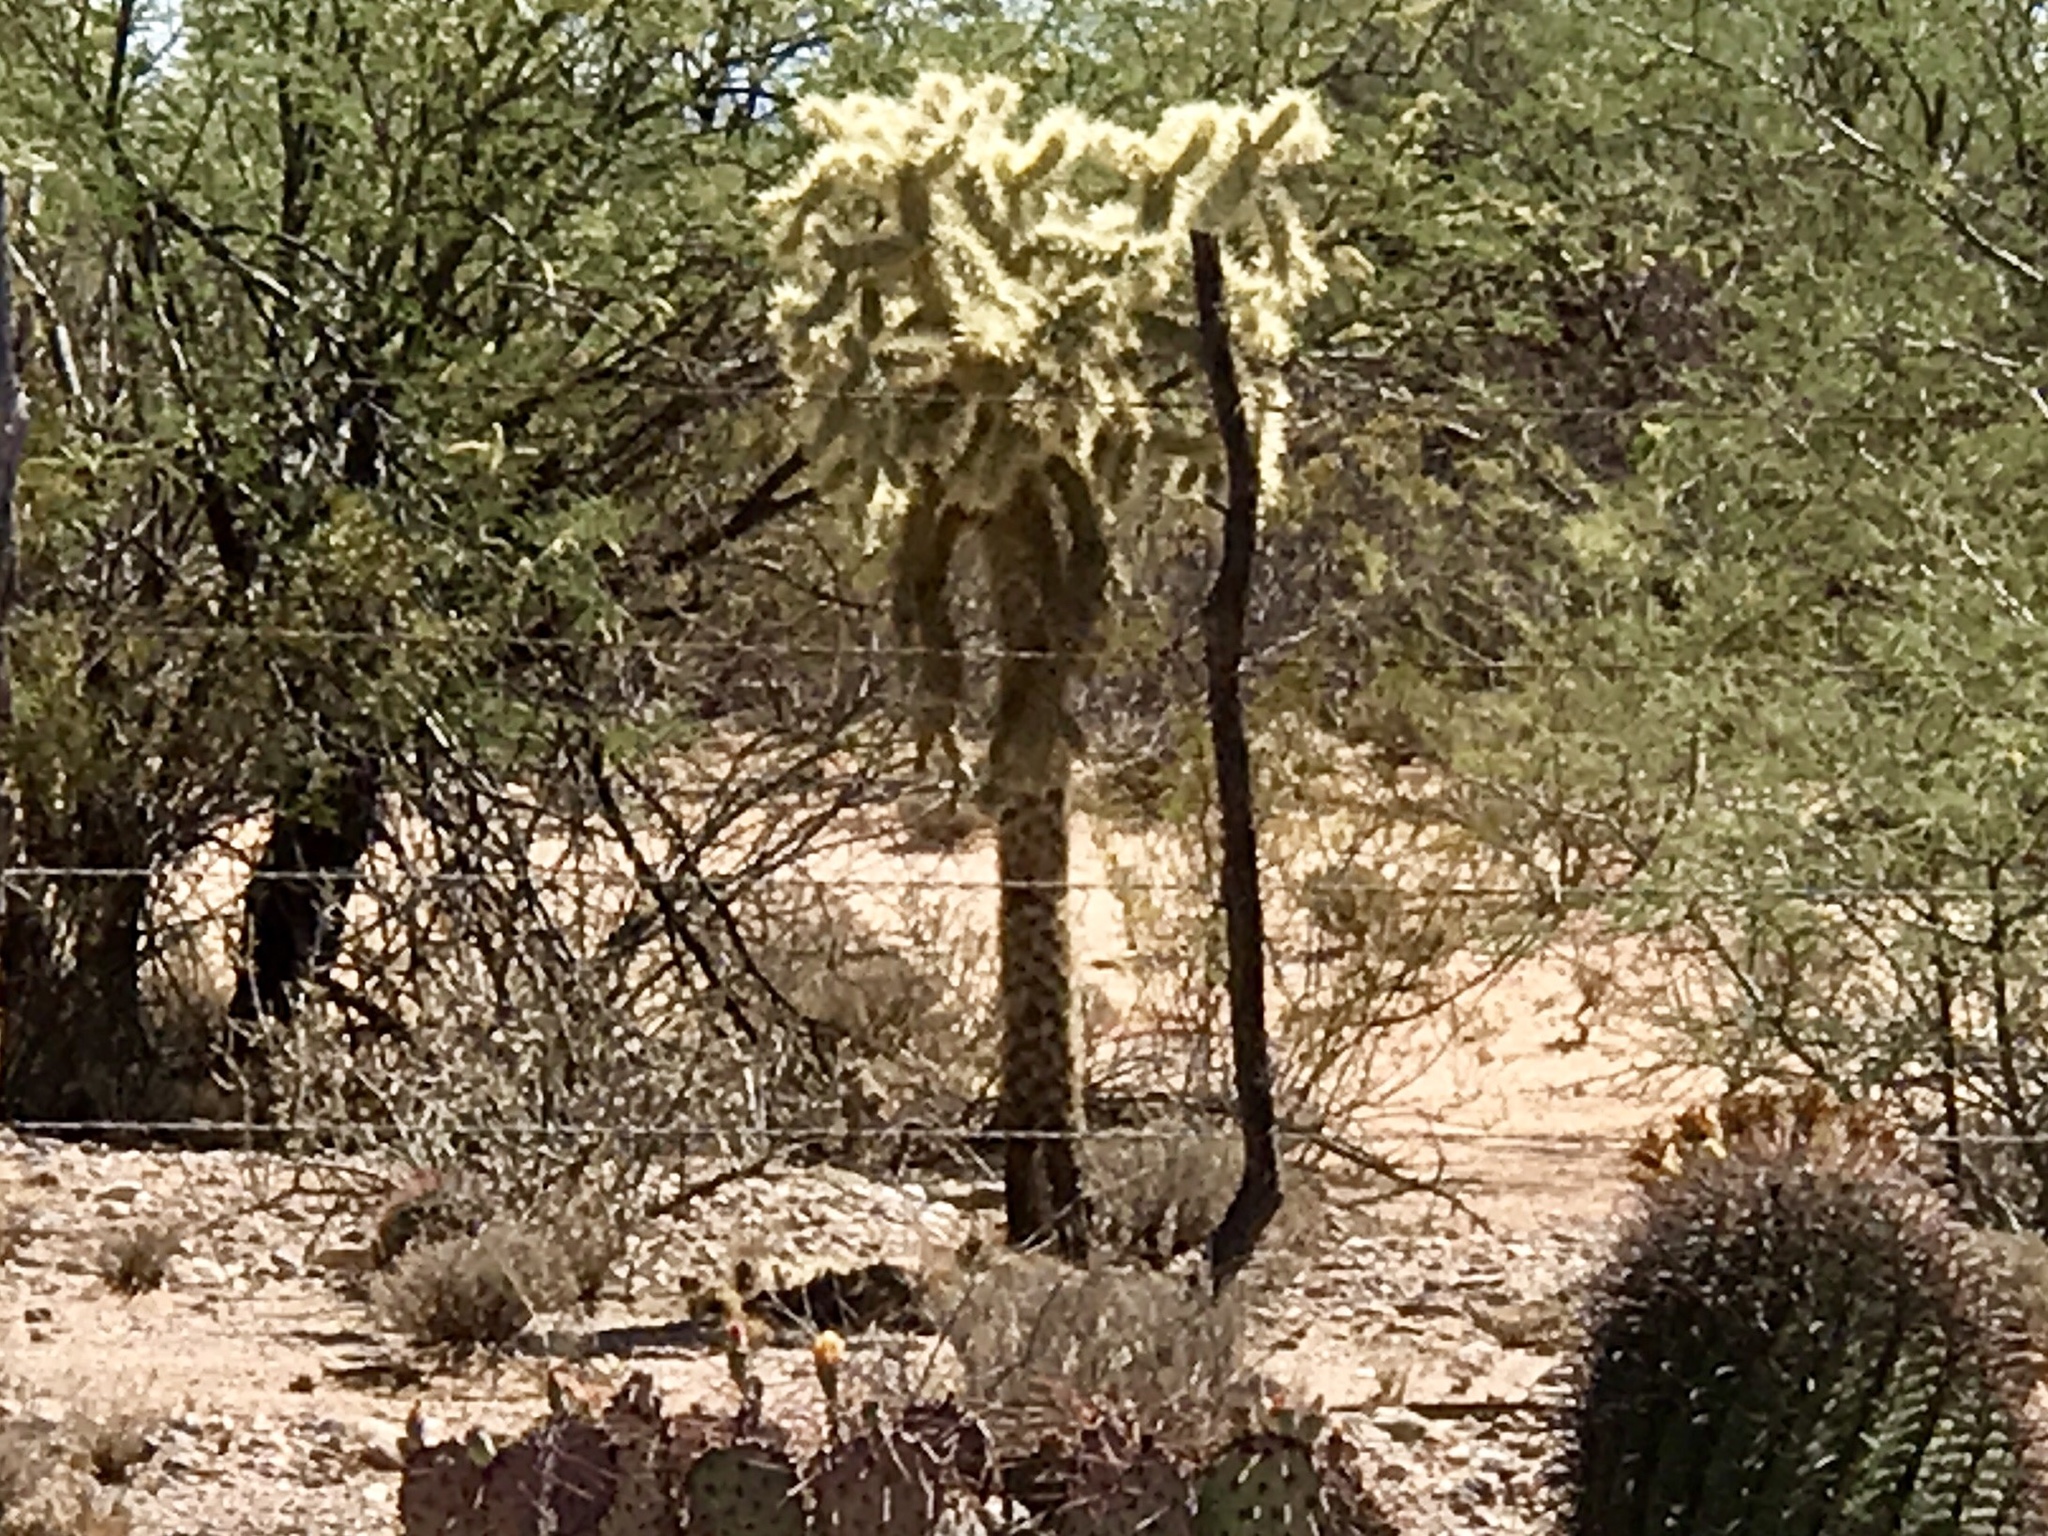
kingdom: Plantae
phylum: Tracheophyta
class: Magnoliopsida
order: Caryophyllales
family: Cactaceae
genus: Cylindropuntia
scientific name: Cylindropuntia fulgida
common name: Jumping cholla
